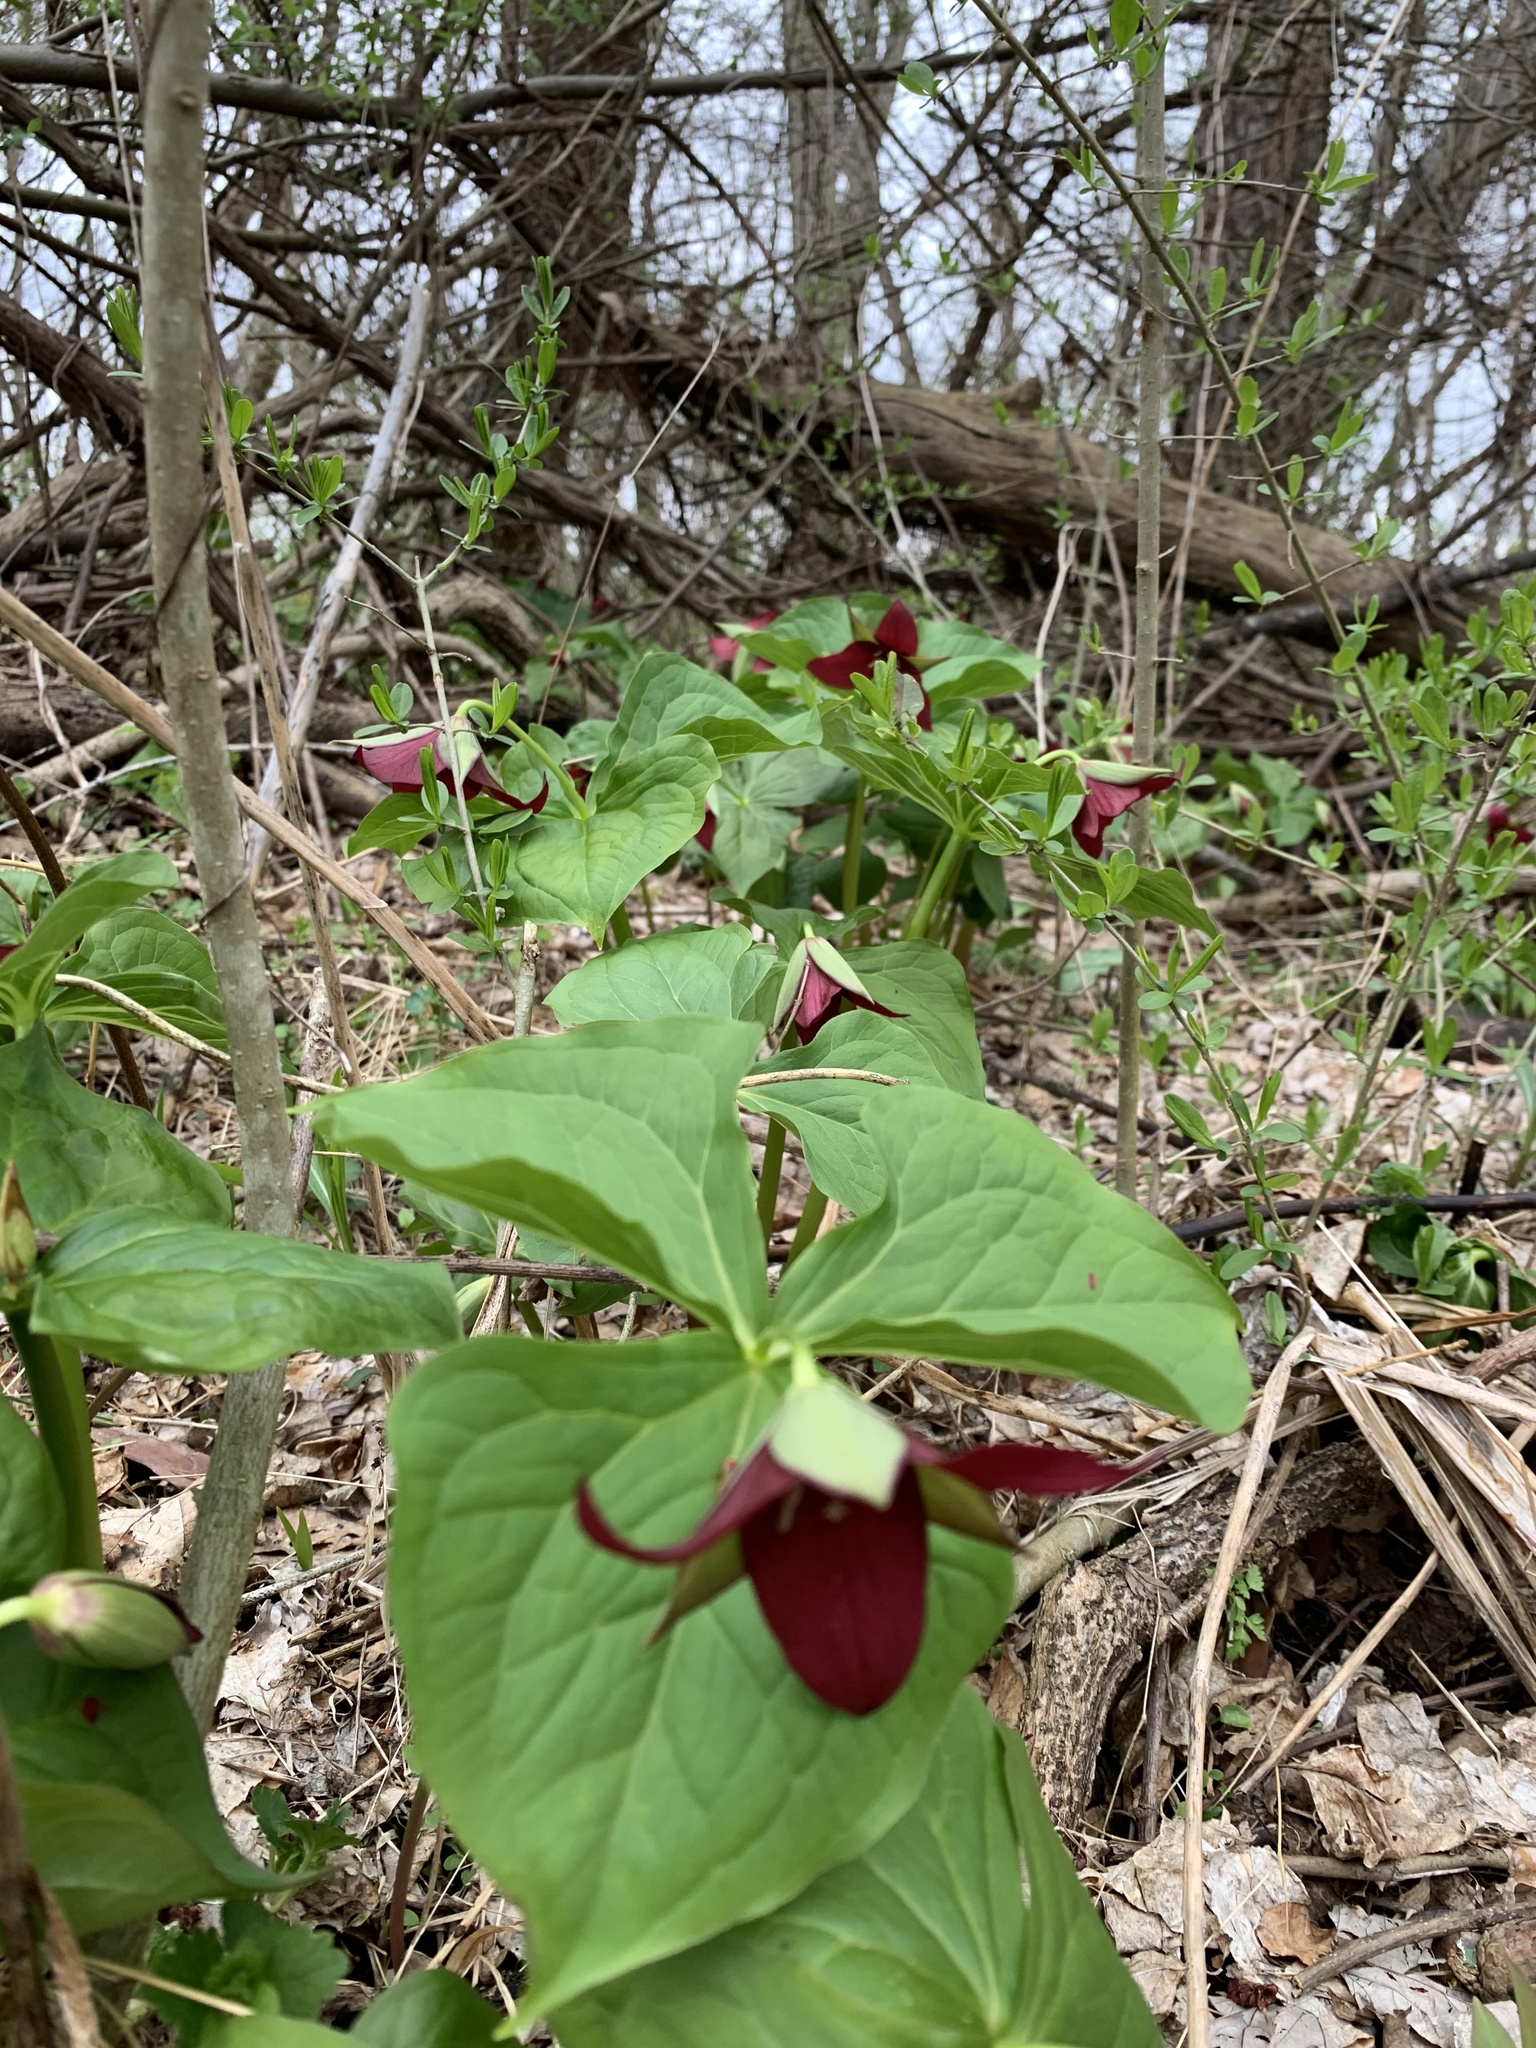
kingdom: Plantae
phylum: Tracheophyta
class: Liliopsida
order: Liliales
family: Melanthiaceae
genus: Trillium
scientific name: Trillium erectum
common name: Purple trillium
